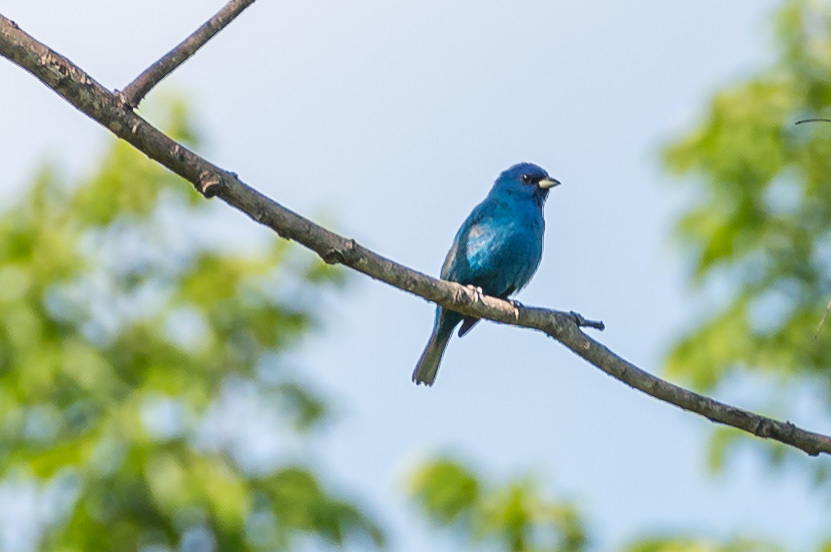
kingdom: Animalia
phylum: Chordata
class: Aves
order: Passeriformes
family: Cardinalidae
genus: Passerina
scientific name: Passerina cyanea
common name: Indigo bunting
